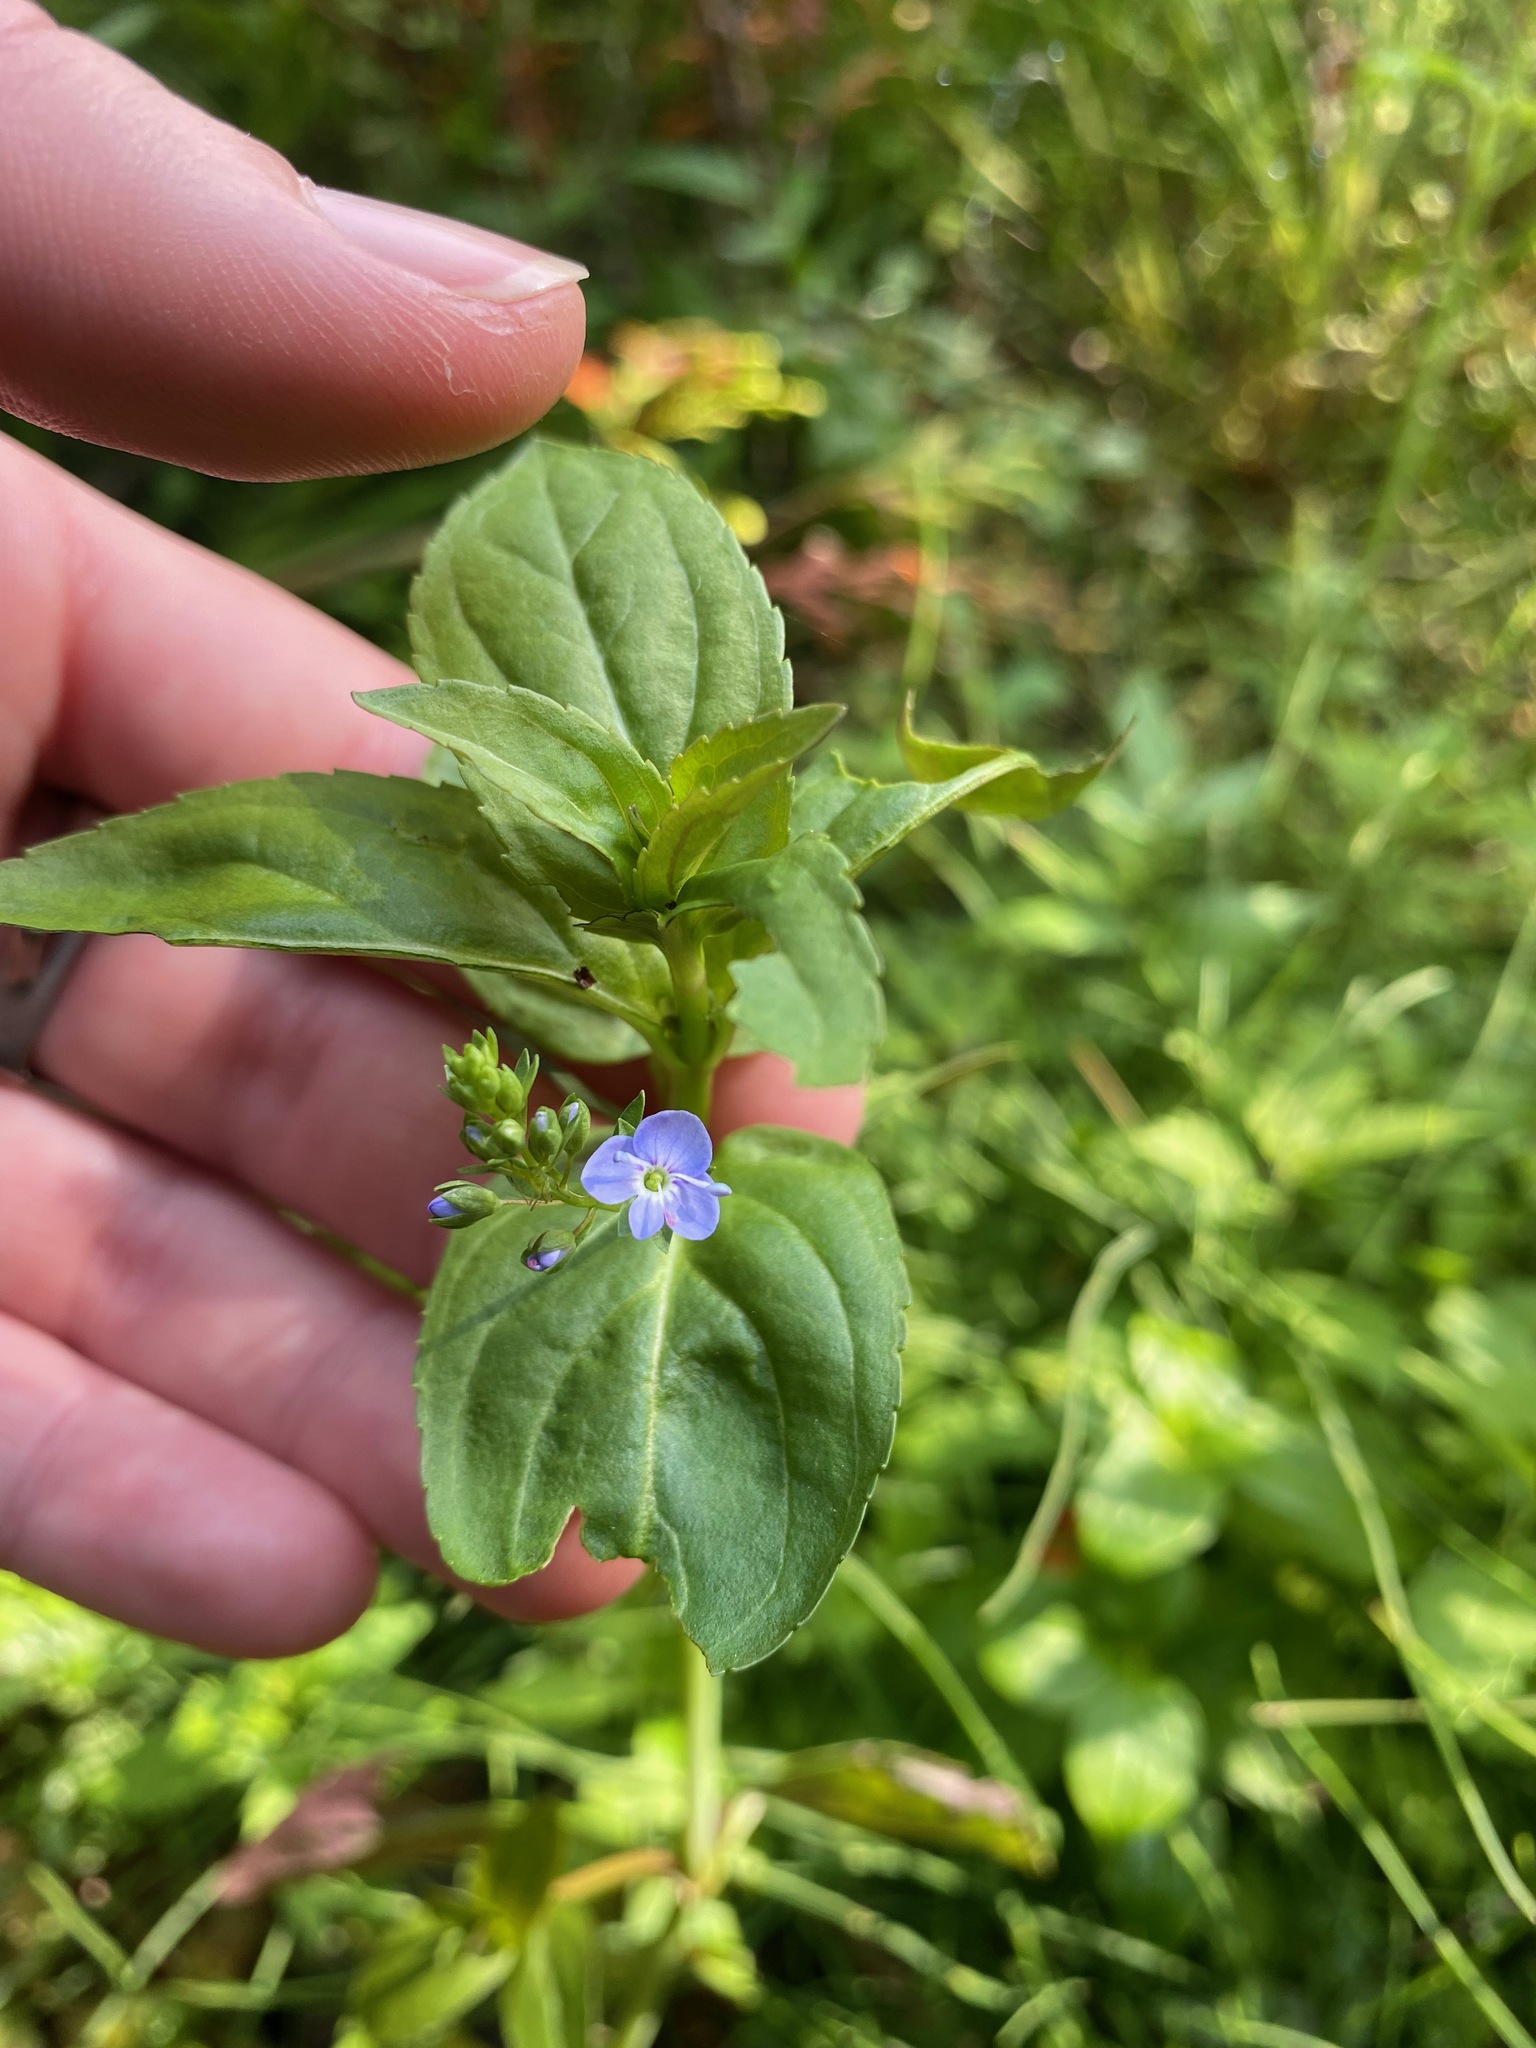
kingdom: Plantae
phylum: Tracheophyta
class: Magnoliopsida
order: Lamiales
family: Plantaginaceae
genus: Veronica
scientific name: Veronica americana
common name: American brooklime
